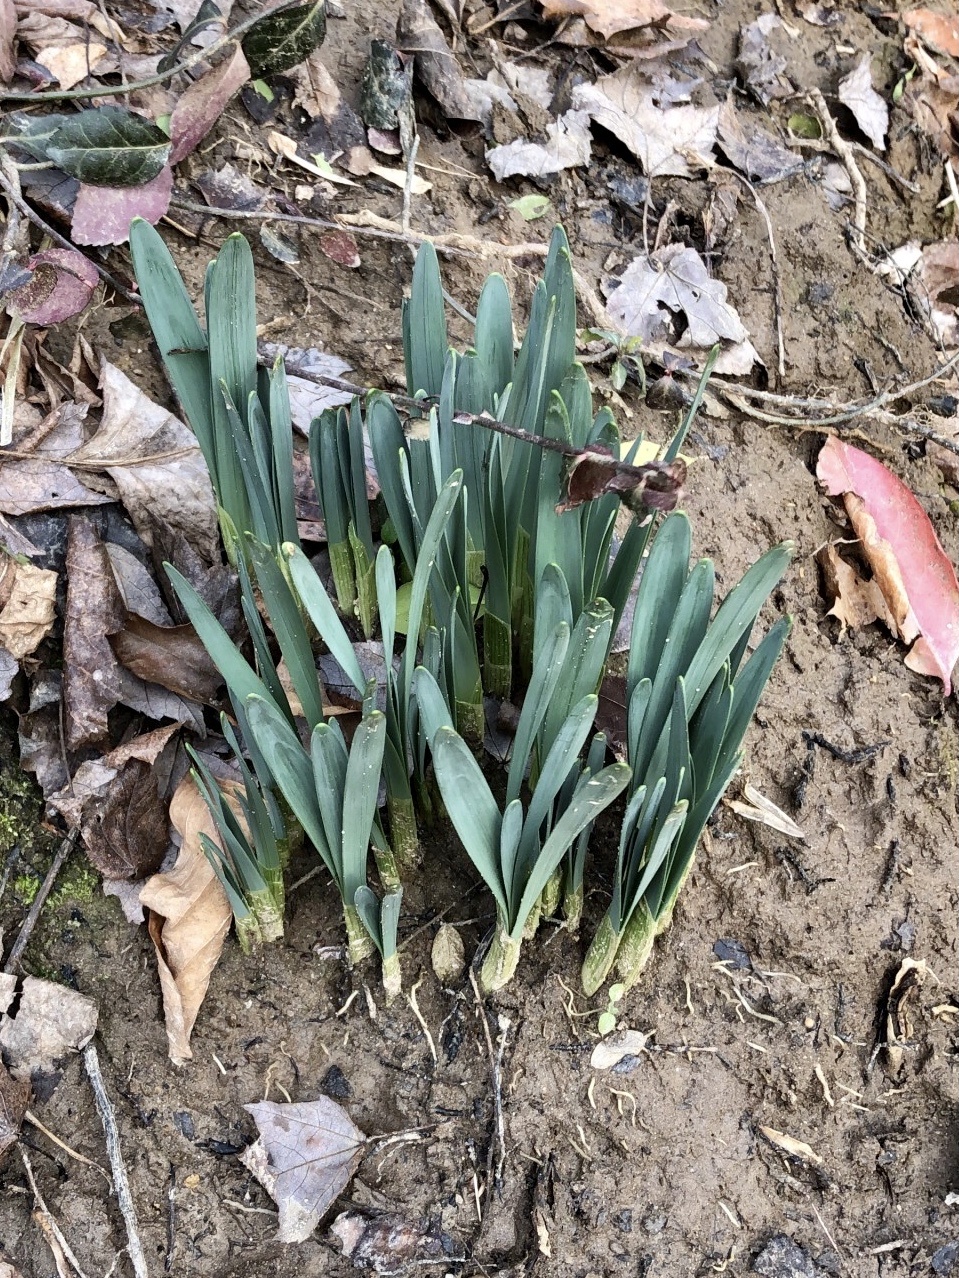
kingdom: Plantae
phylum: Tracheophyta
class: Liliopsida
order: Asparagales
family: Amaryllidaceae
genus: Narcissus
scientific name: Narcissus
